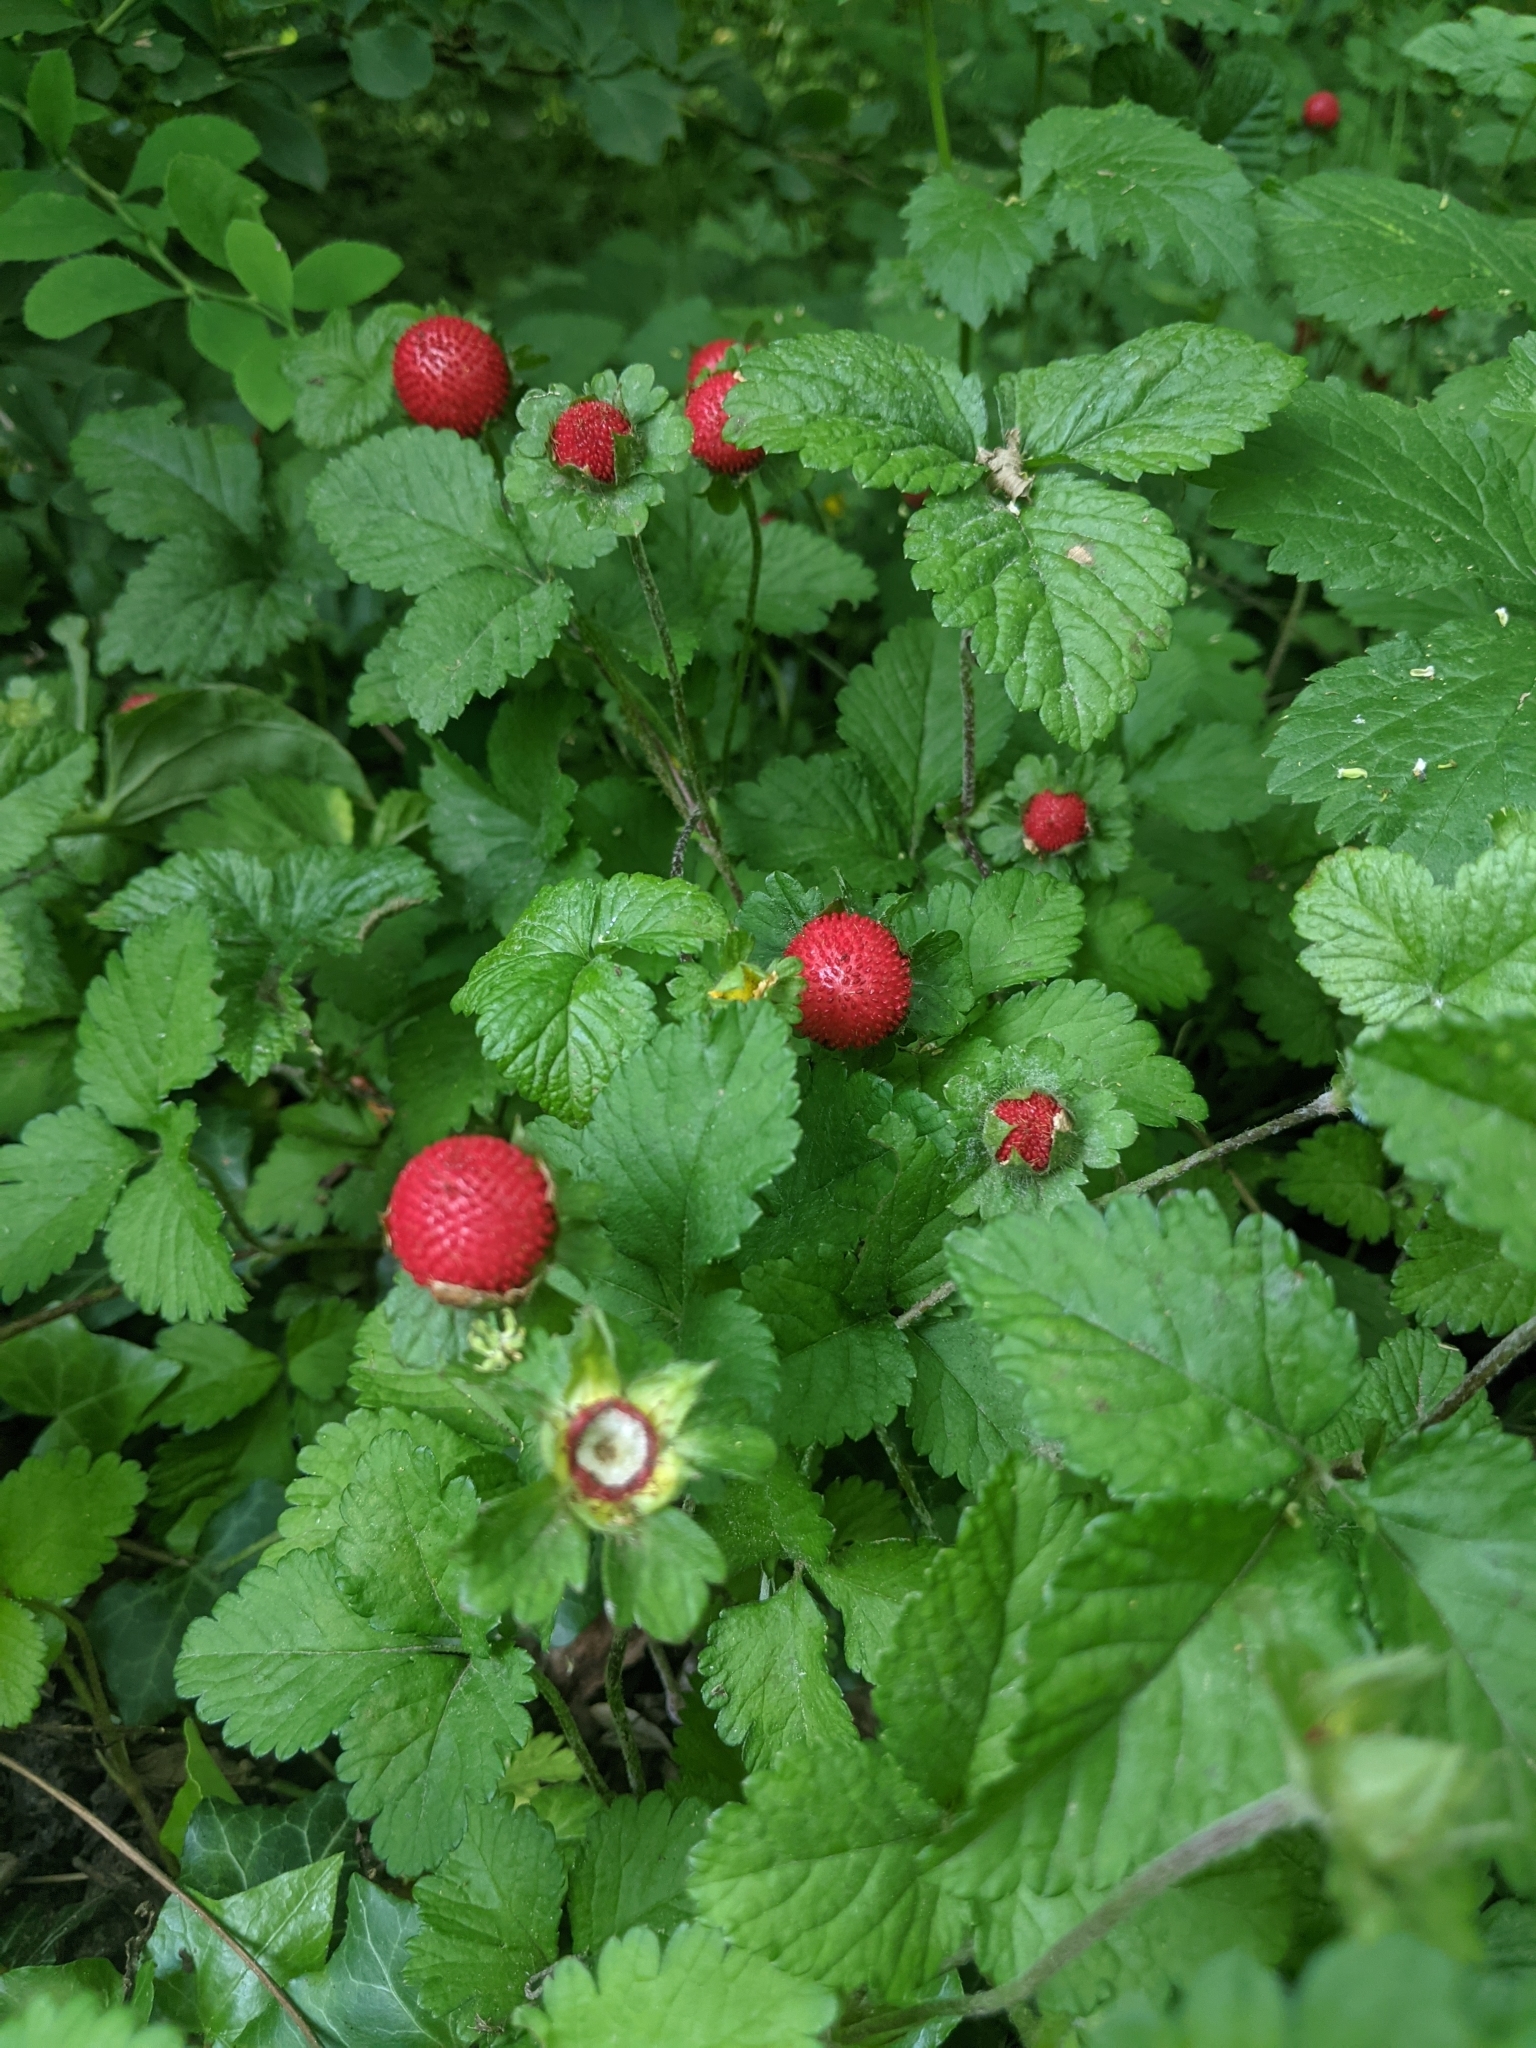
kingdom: Plantae
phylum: Tracheophyta
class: Magnoliopsida
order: Rosales
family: Rosaceae
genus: Potentilla
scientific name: Potentilla indica
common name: Yellow-flowered strawberry
